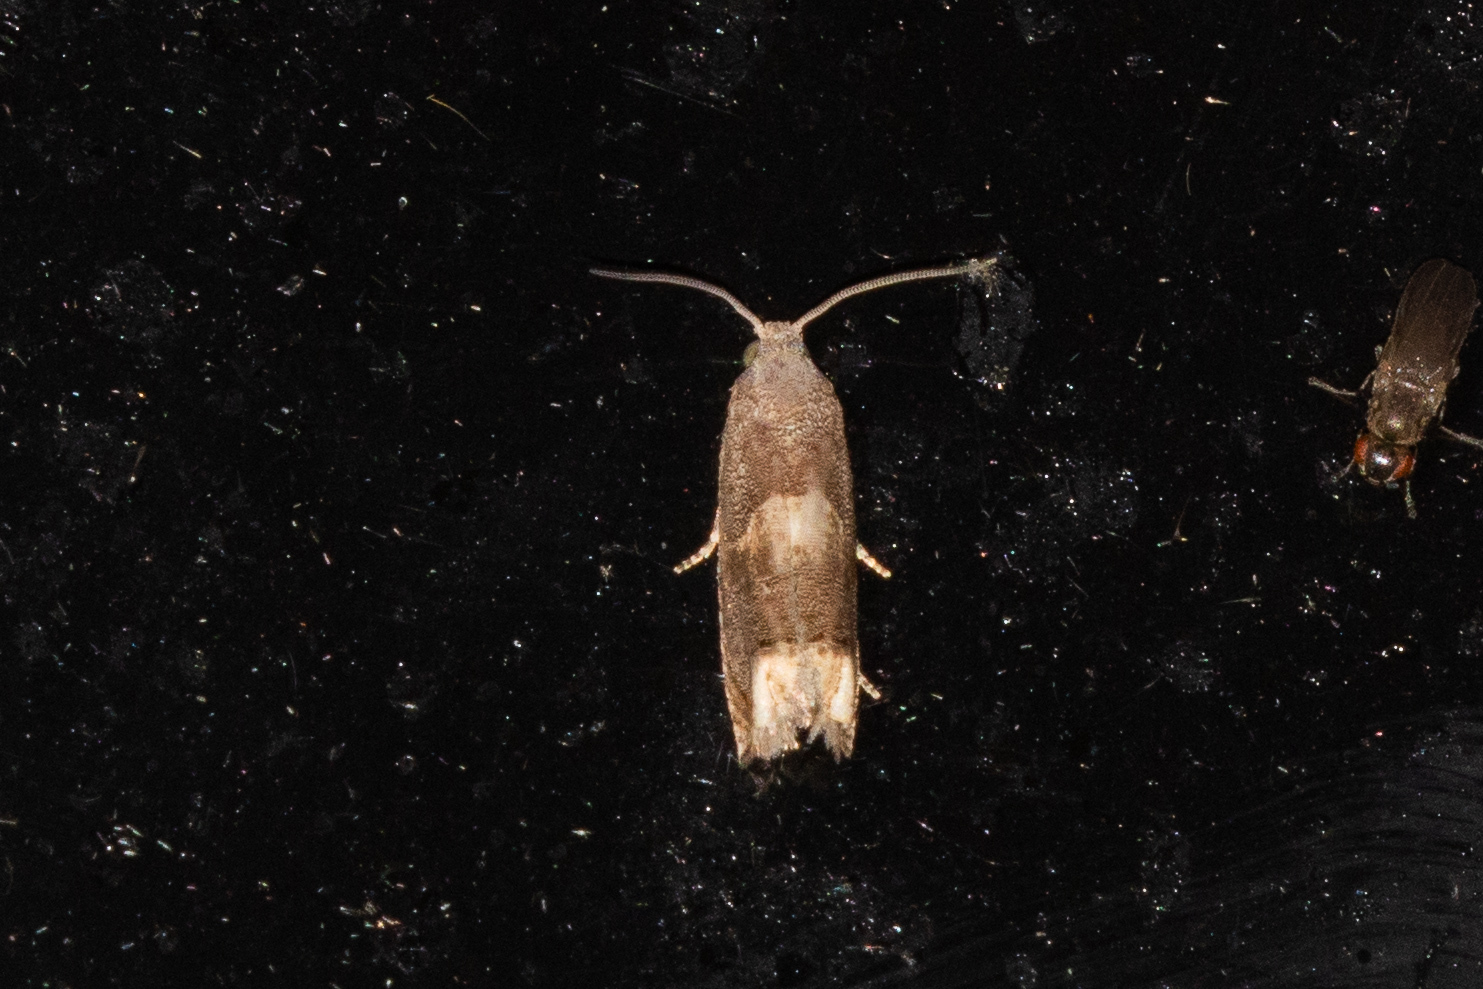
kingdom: Animalia
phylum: Arthropoda
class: Insecta
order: Lepidoptera
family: Tortricidae
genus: Epiblema
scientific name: Epiblema strenuana
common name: Ragweed borer moth
